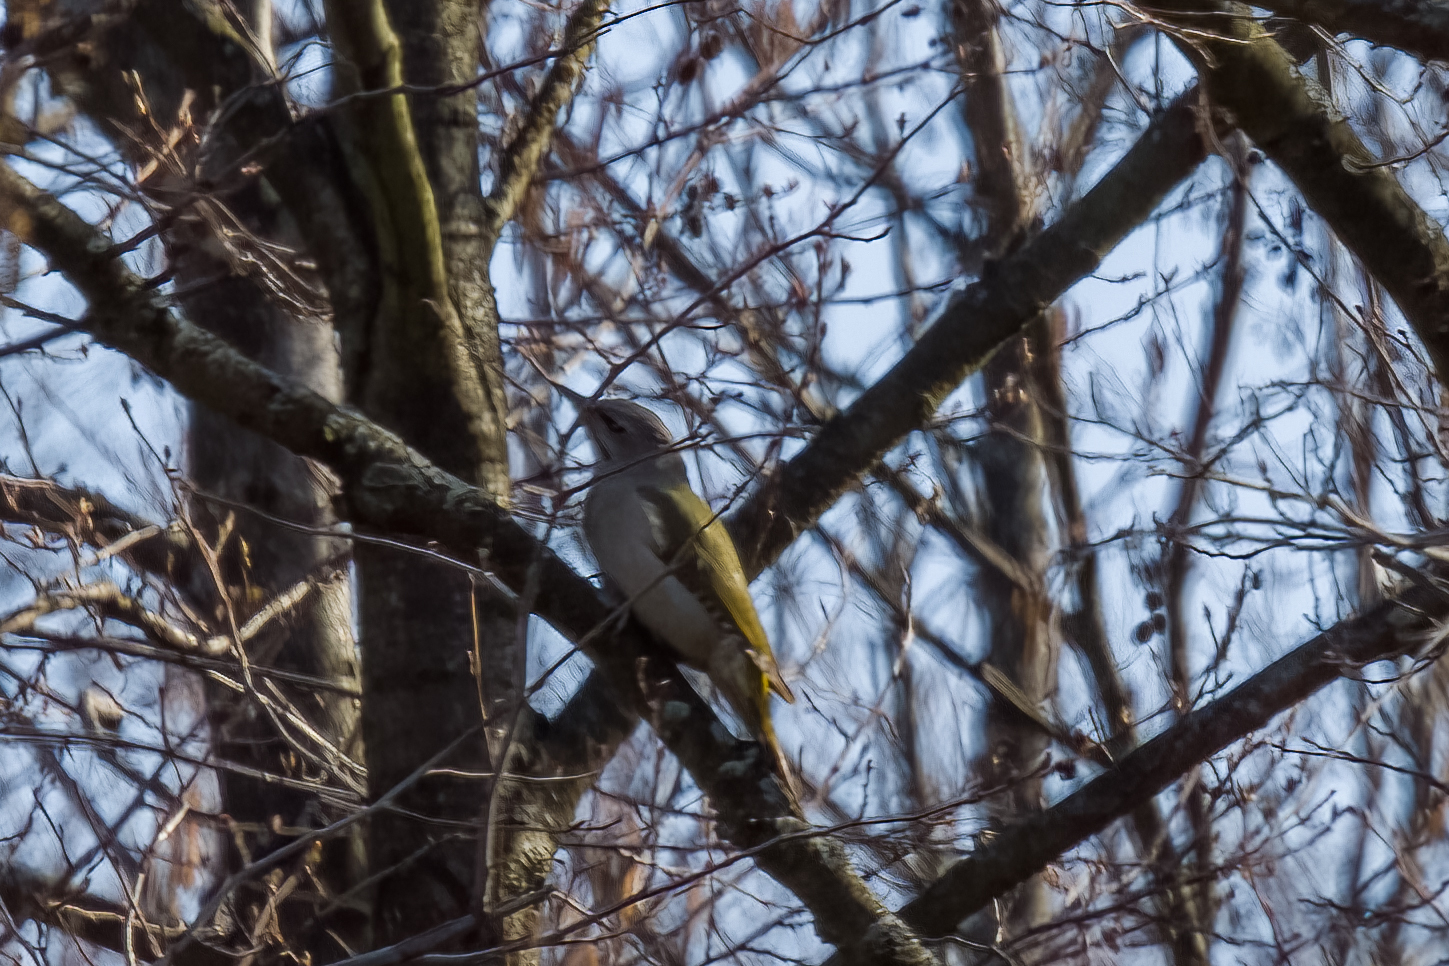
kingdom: Animalia
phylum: Chordata
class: Aves
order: Piciformes
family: Picidae
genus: Picus
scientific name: Picus canus
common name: Grey-headed woodpecker
